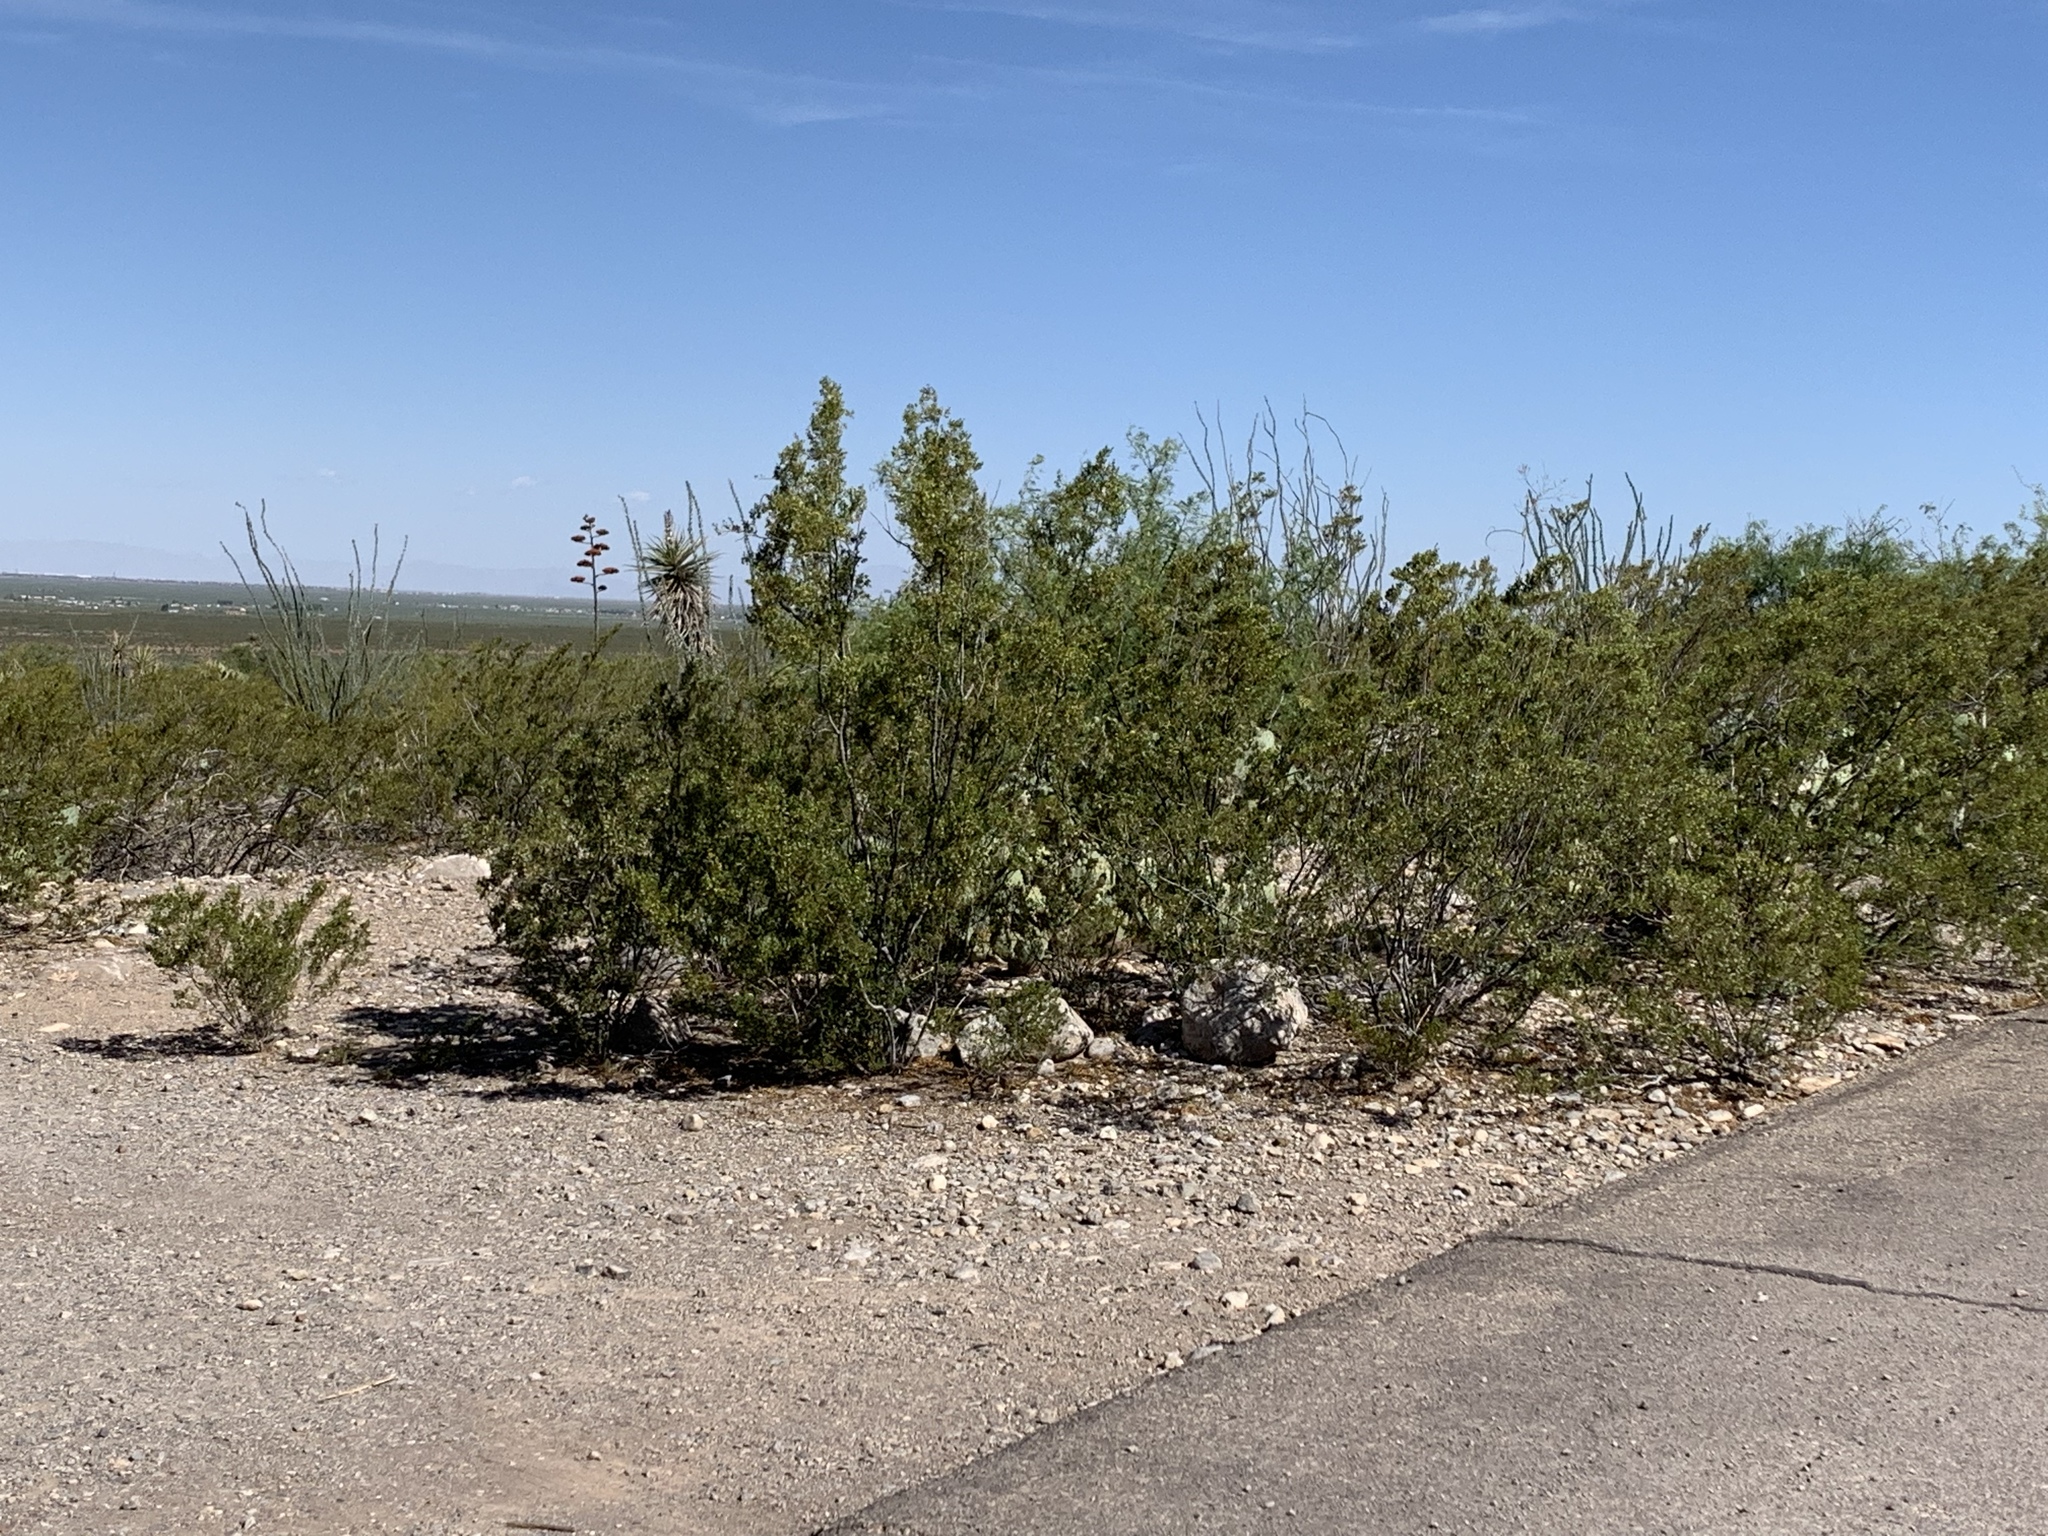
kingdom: Plantae
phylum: Tracheophyta
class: Magnoliopsida
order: Zygophyllales
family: Zygophyllaceae
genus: Larrea
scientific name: Larrea tridentata
